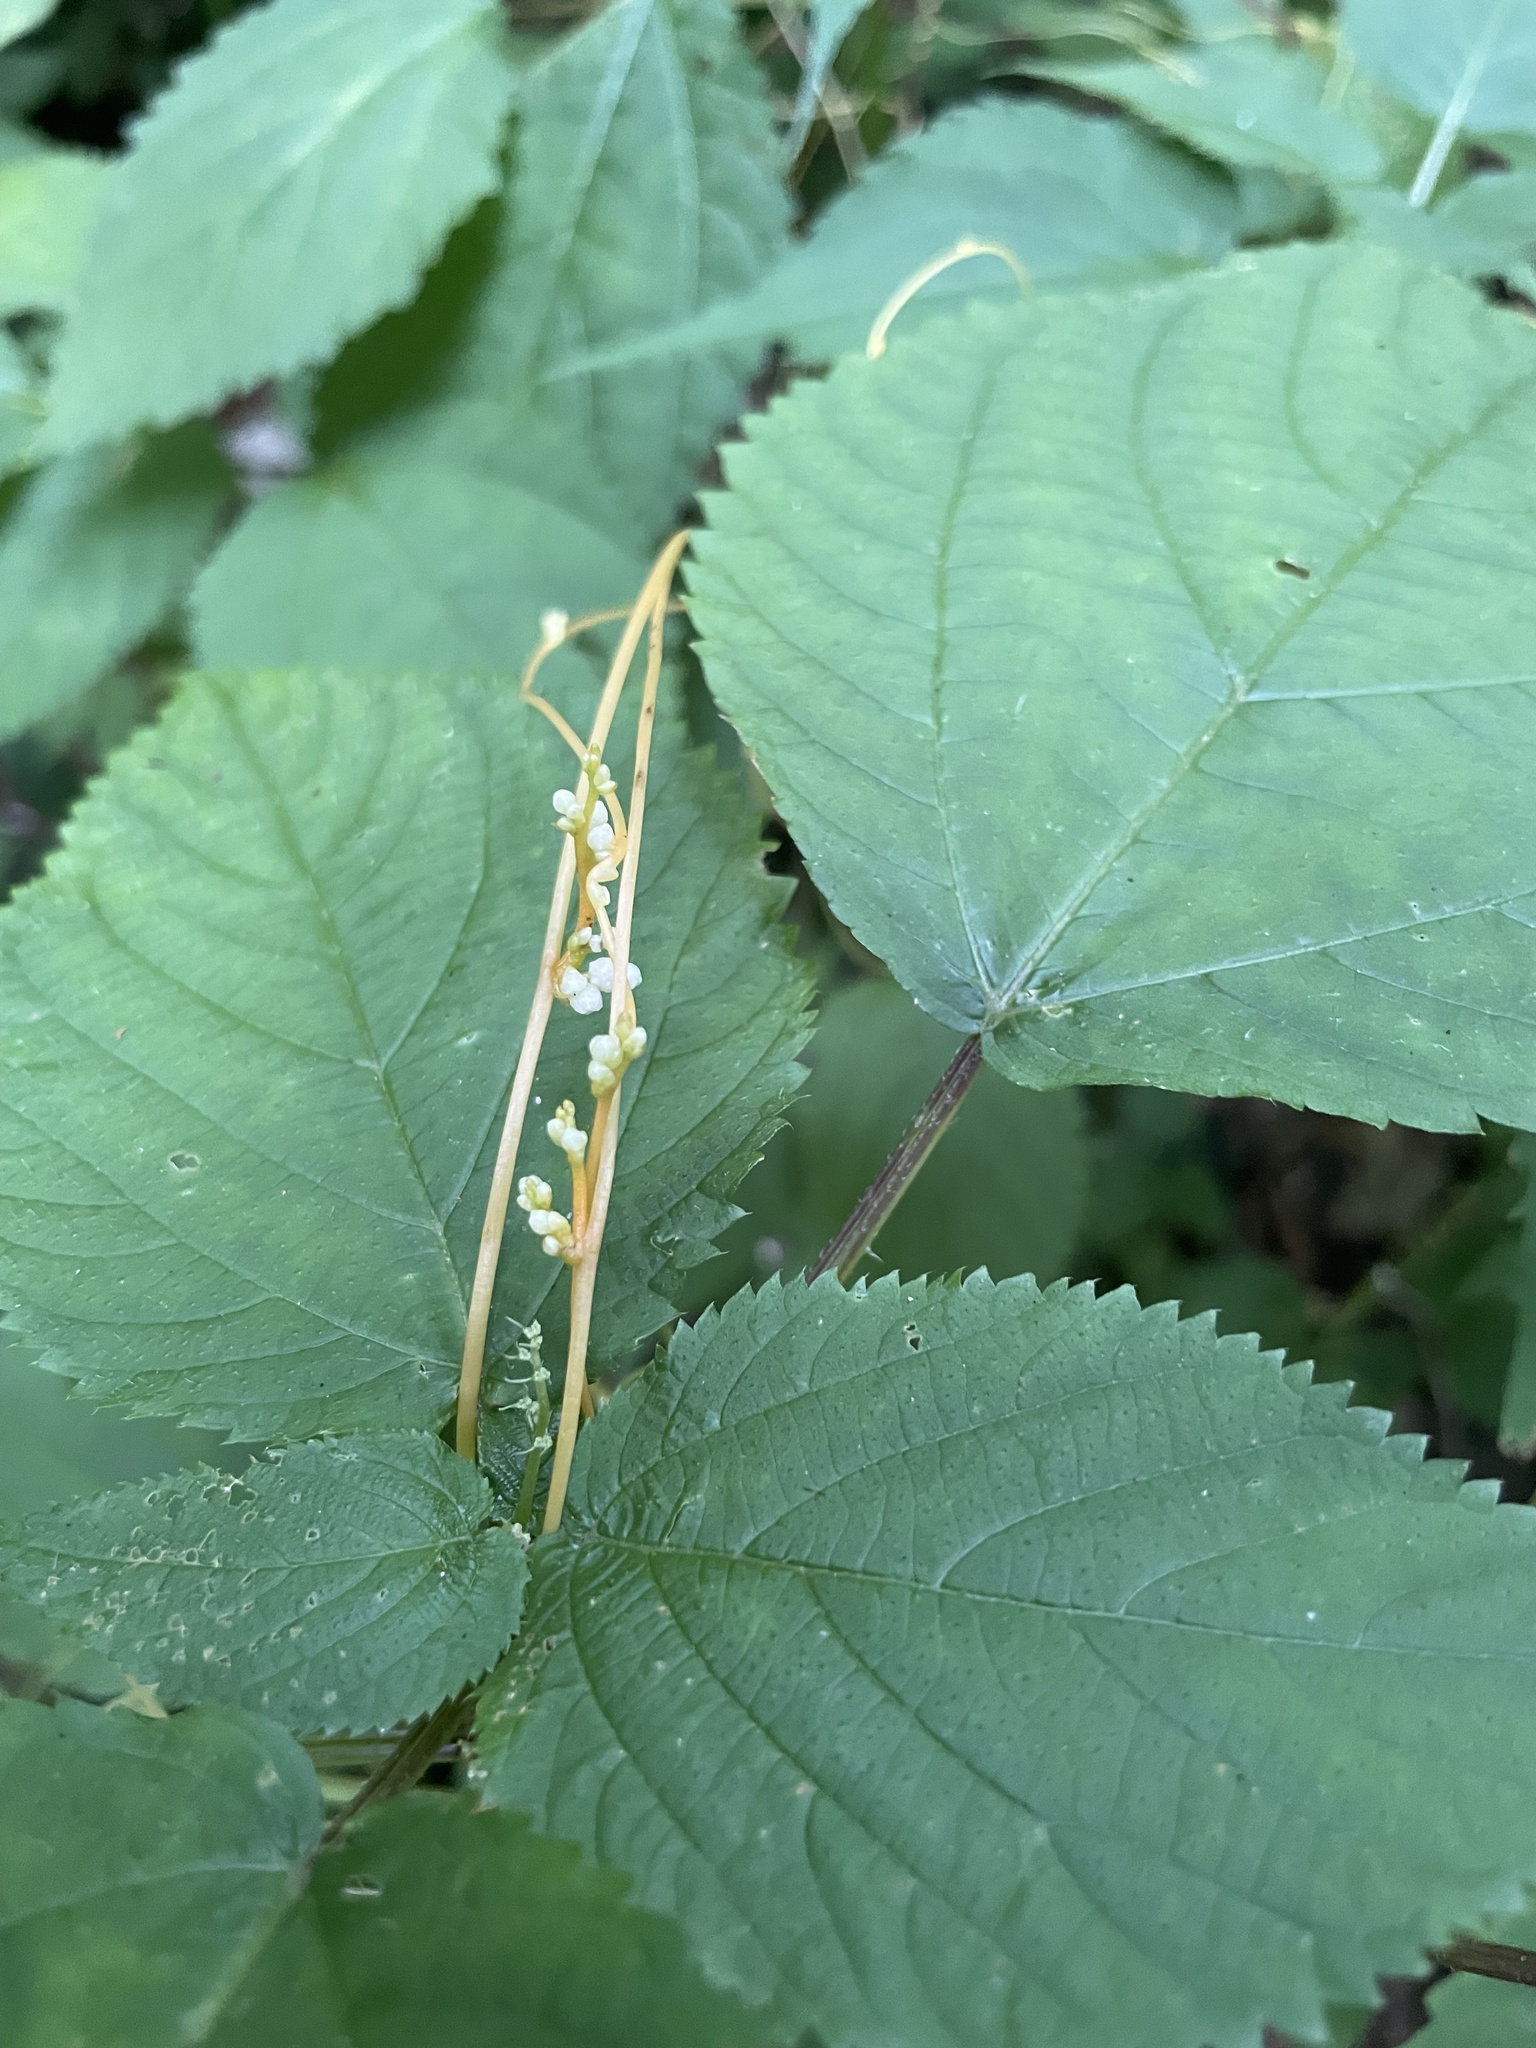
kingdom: Plantae
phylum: Tracheophyta
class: Magnoliopsida
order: Solanales
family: Convolvulaceae
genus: Cuscuta
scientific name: Cuscuta rostrata
